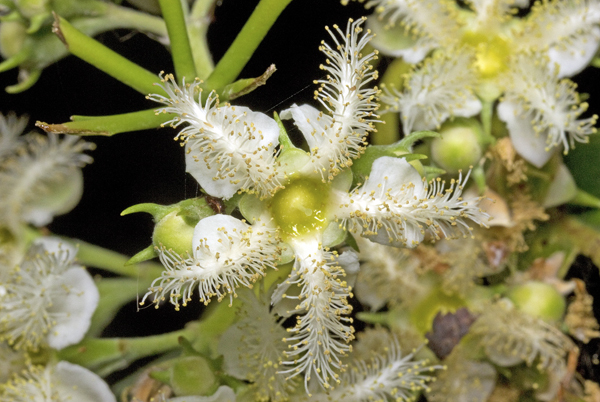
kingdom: Plantae
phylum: Tracheophyta
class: Magnoliopsida
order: Myrtales
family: Myrtaceae
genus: Lophostemon
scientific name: Lophostemon confertus
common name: Brisbane box
